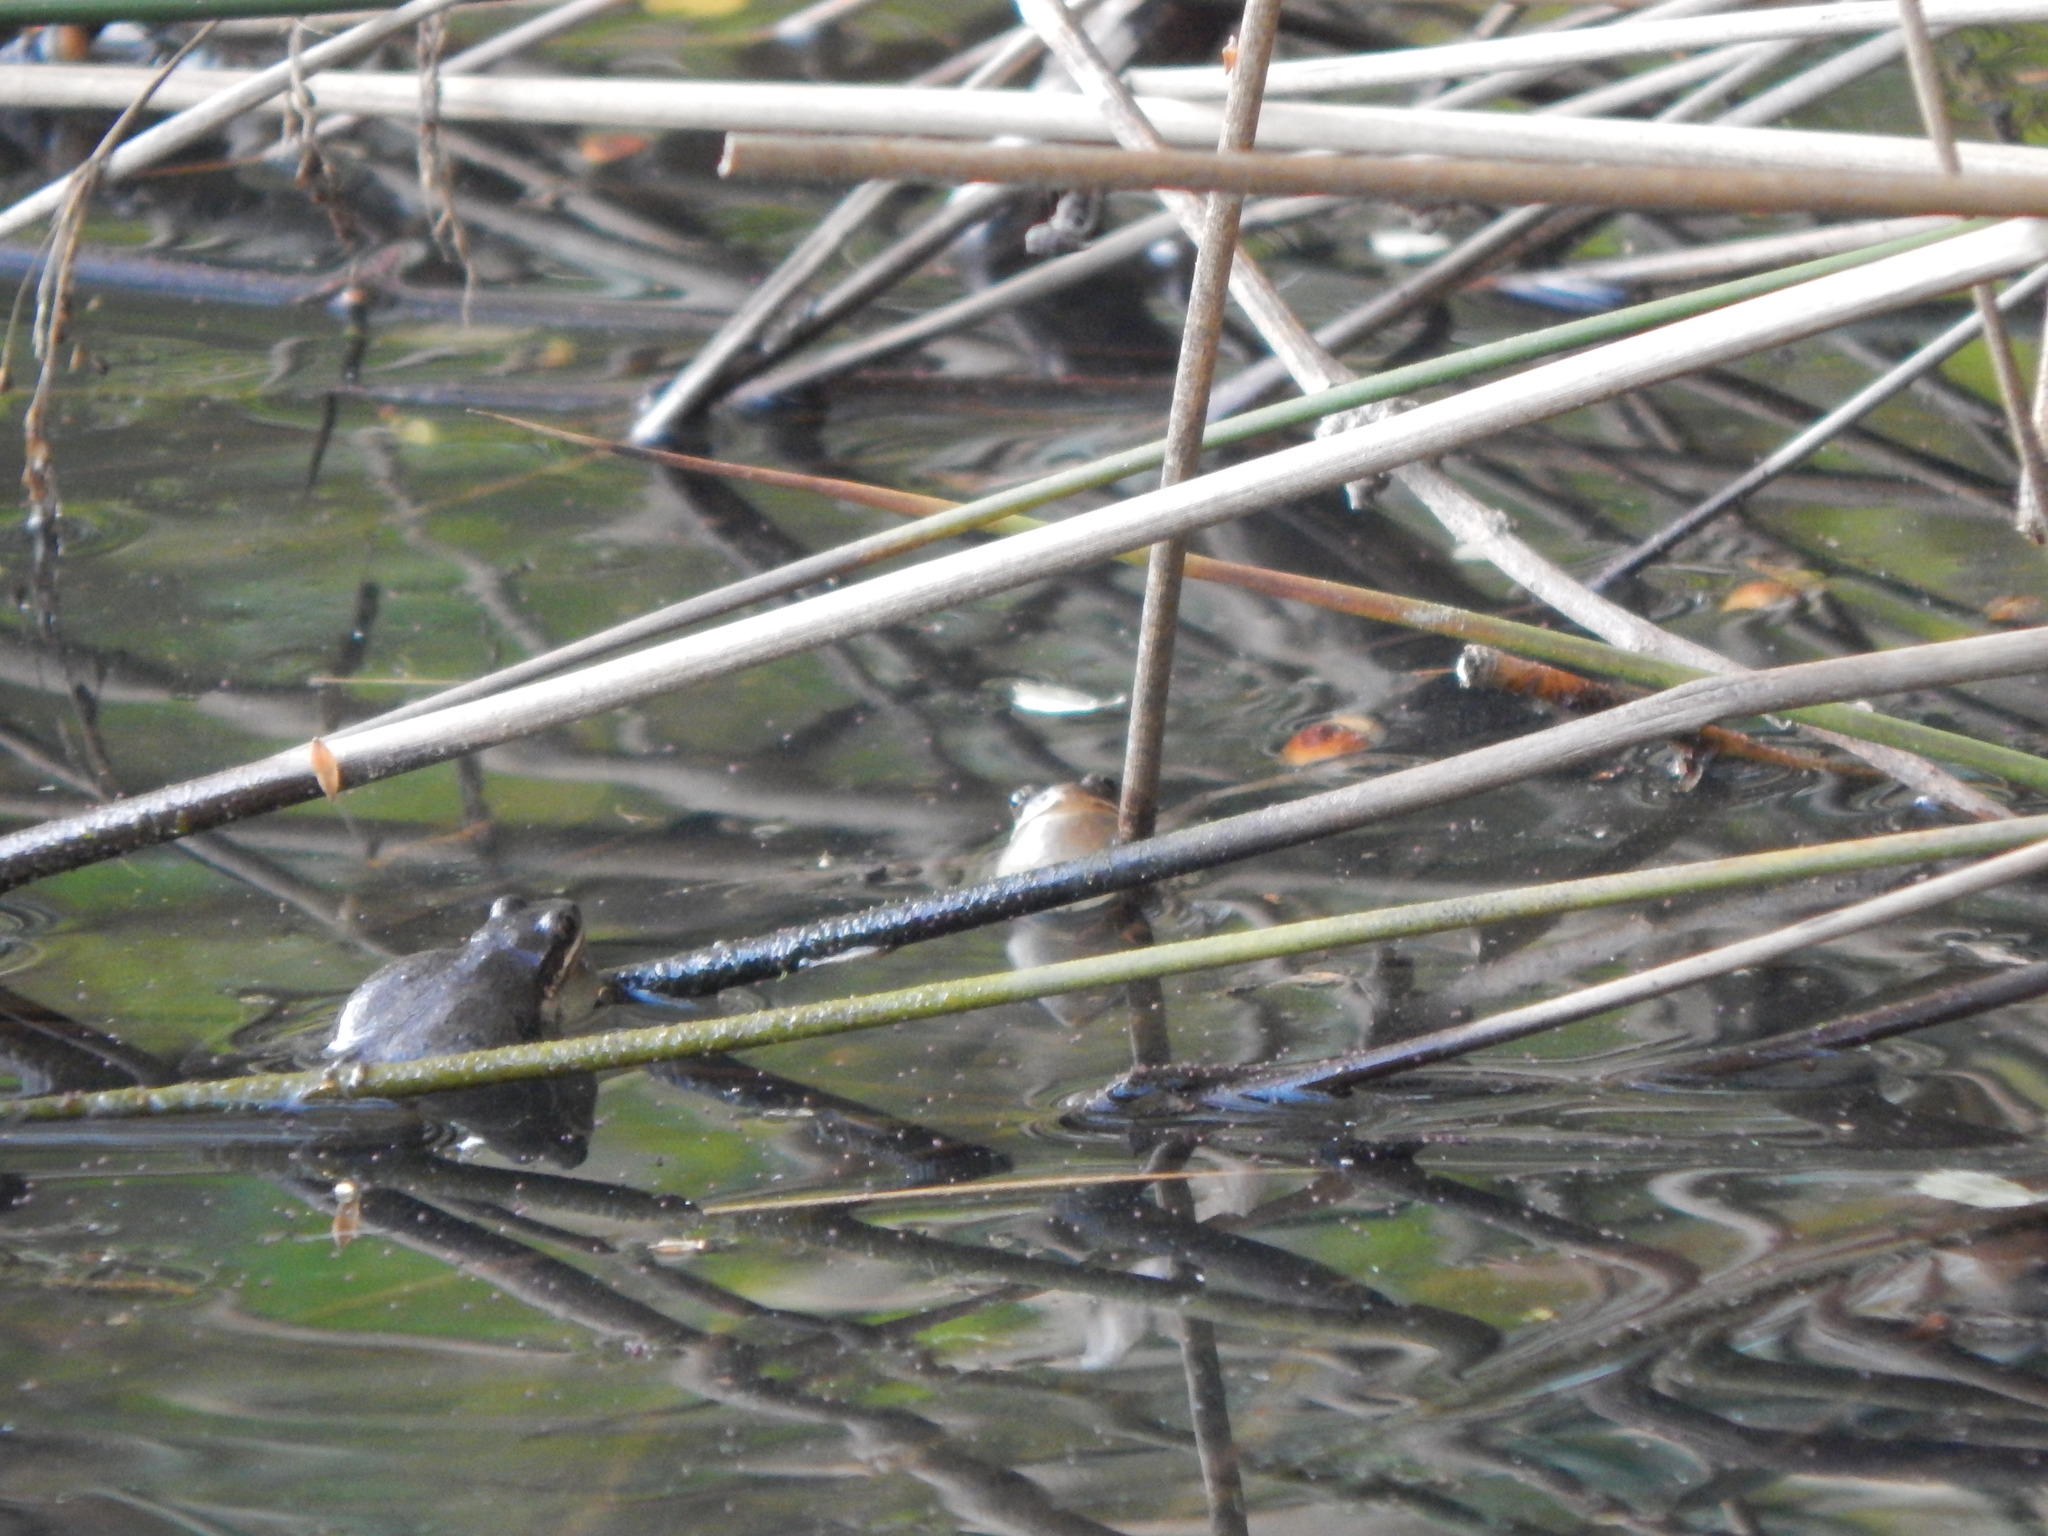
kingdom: Animalia
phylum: Chordata
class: Amphibia
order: Anura
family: Hylidae
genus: Pseudacris
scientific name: Pseudacris feriarum
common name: Upland chorus frog
